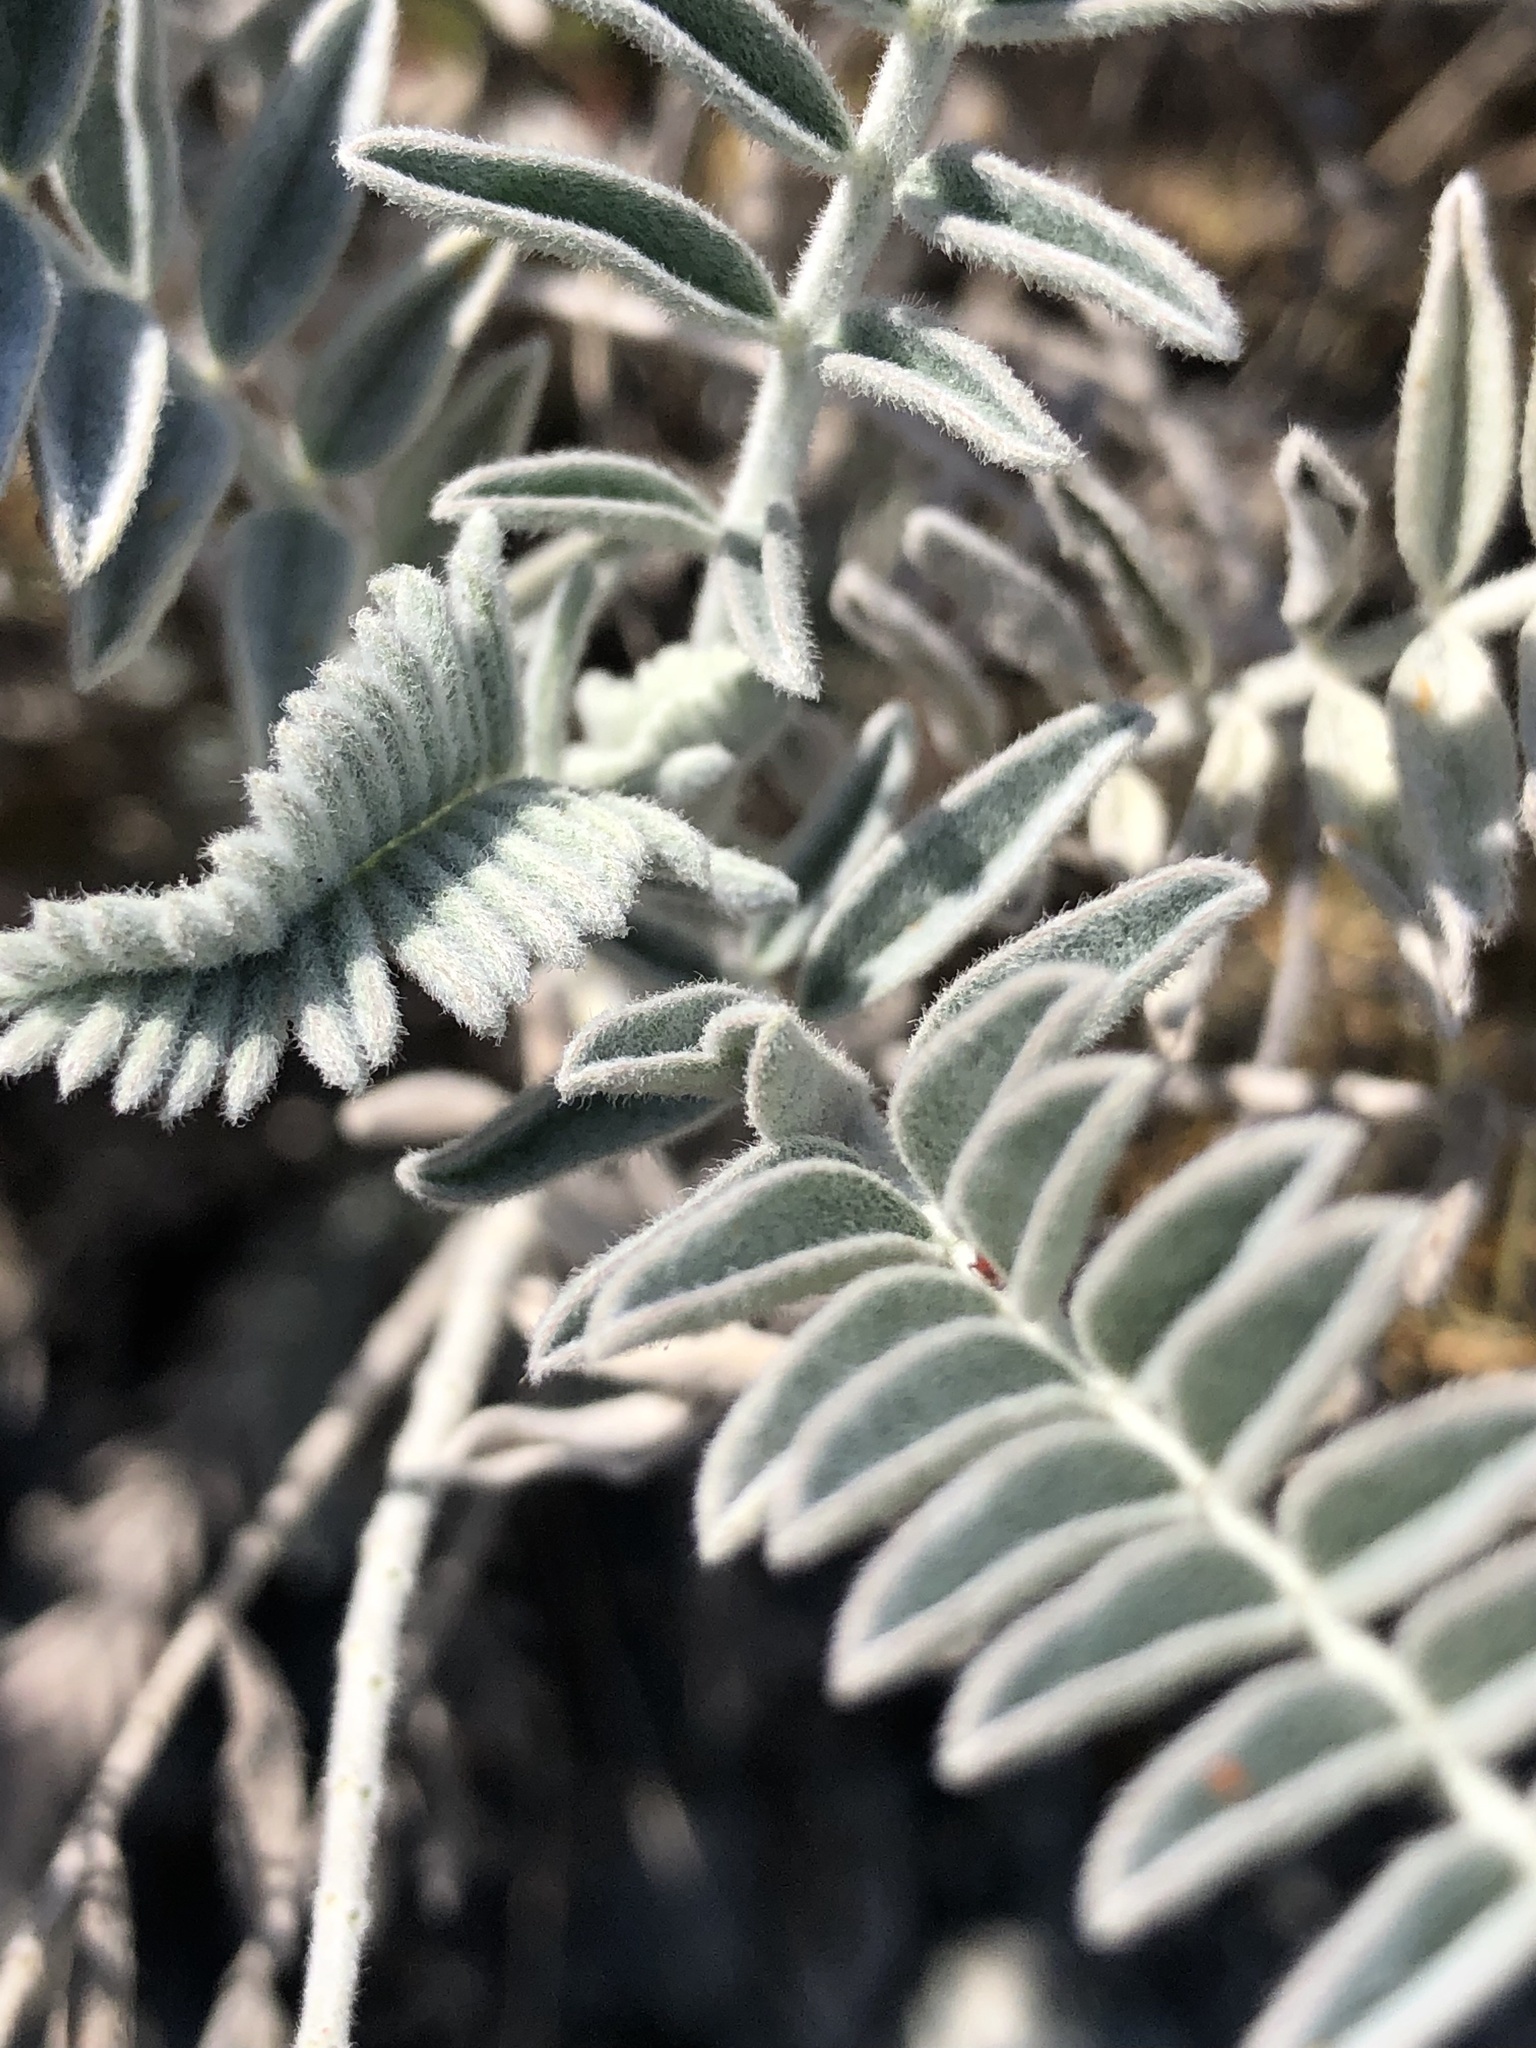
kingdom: Plantae
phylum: Tracheophyta
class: Magnoliopsida
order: Fabales
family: Fabaceae
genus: Astragalus
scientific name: Astragalus trichopodus
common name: Santa barbara milk-vetch
